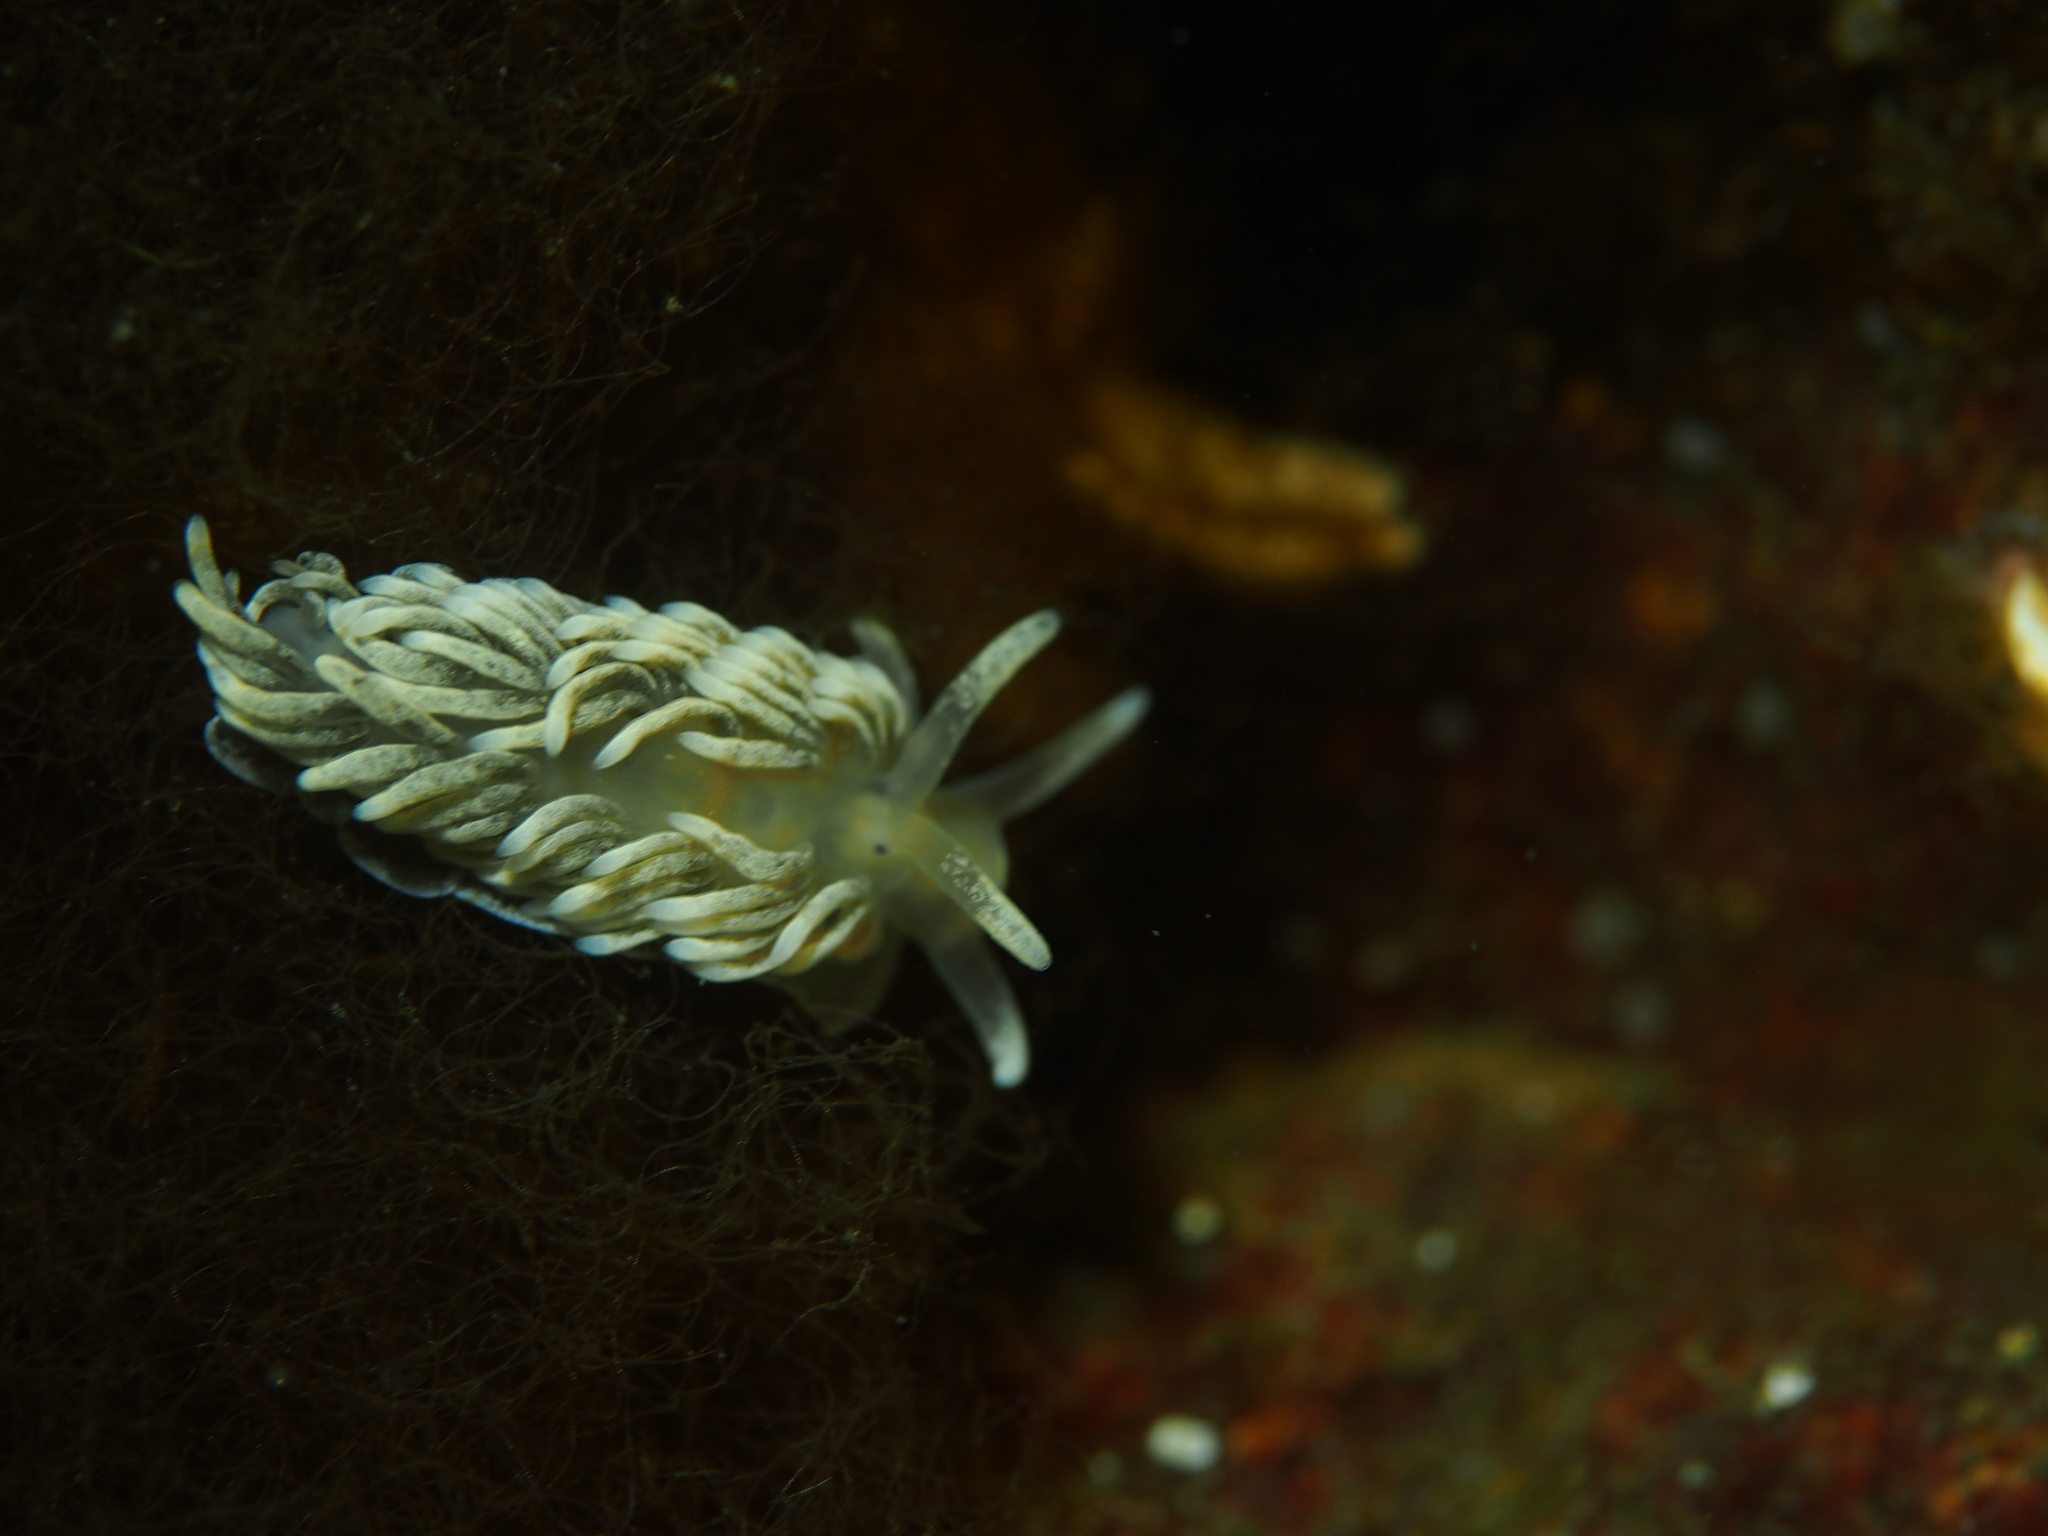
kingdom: Animalia
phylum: Mollusca
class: Gastropoda
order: Nudibranchia
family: Aeolidiidae
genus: Aeolidiella
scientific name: Aeolidiella glauca
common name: Orange-brown aeolid
